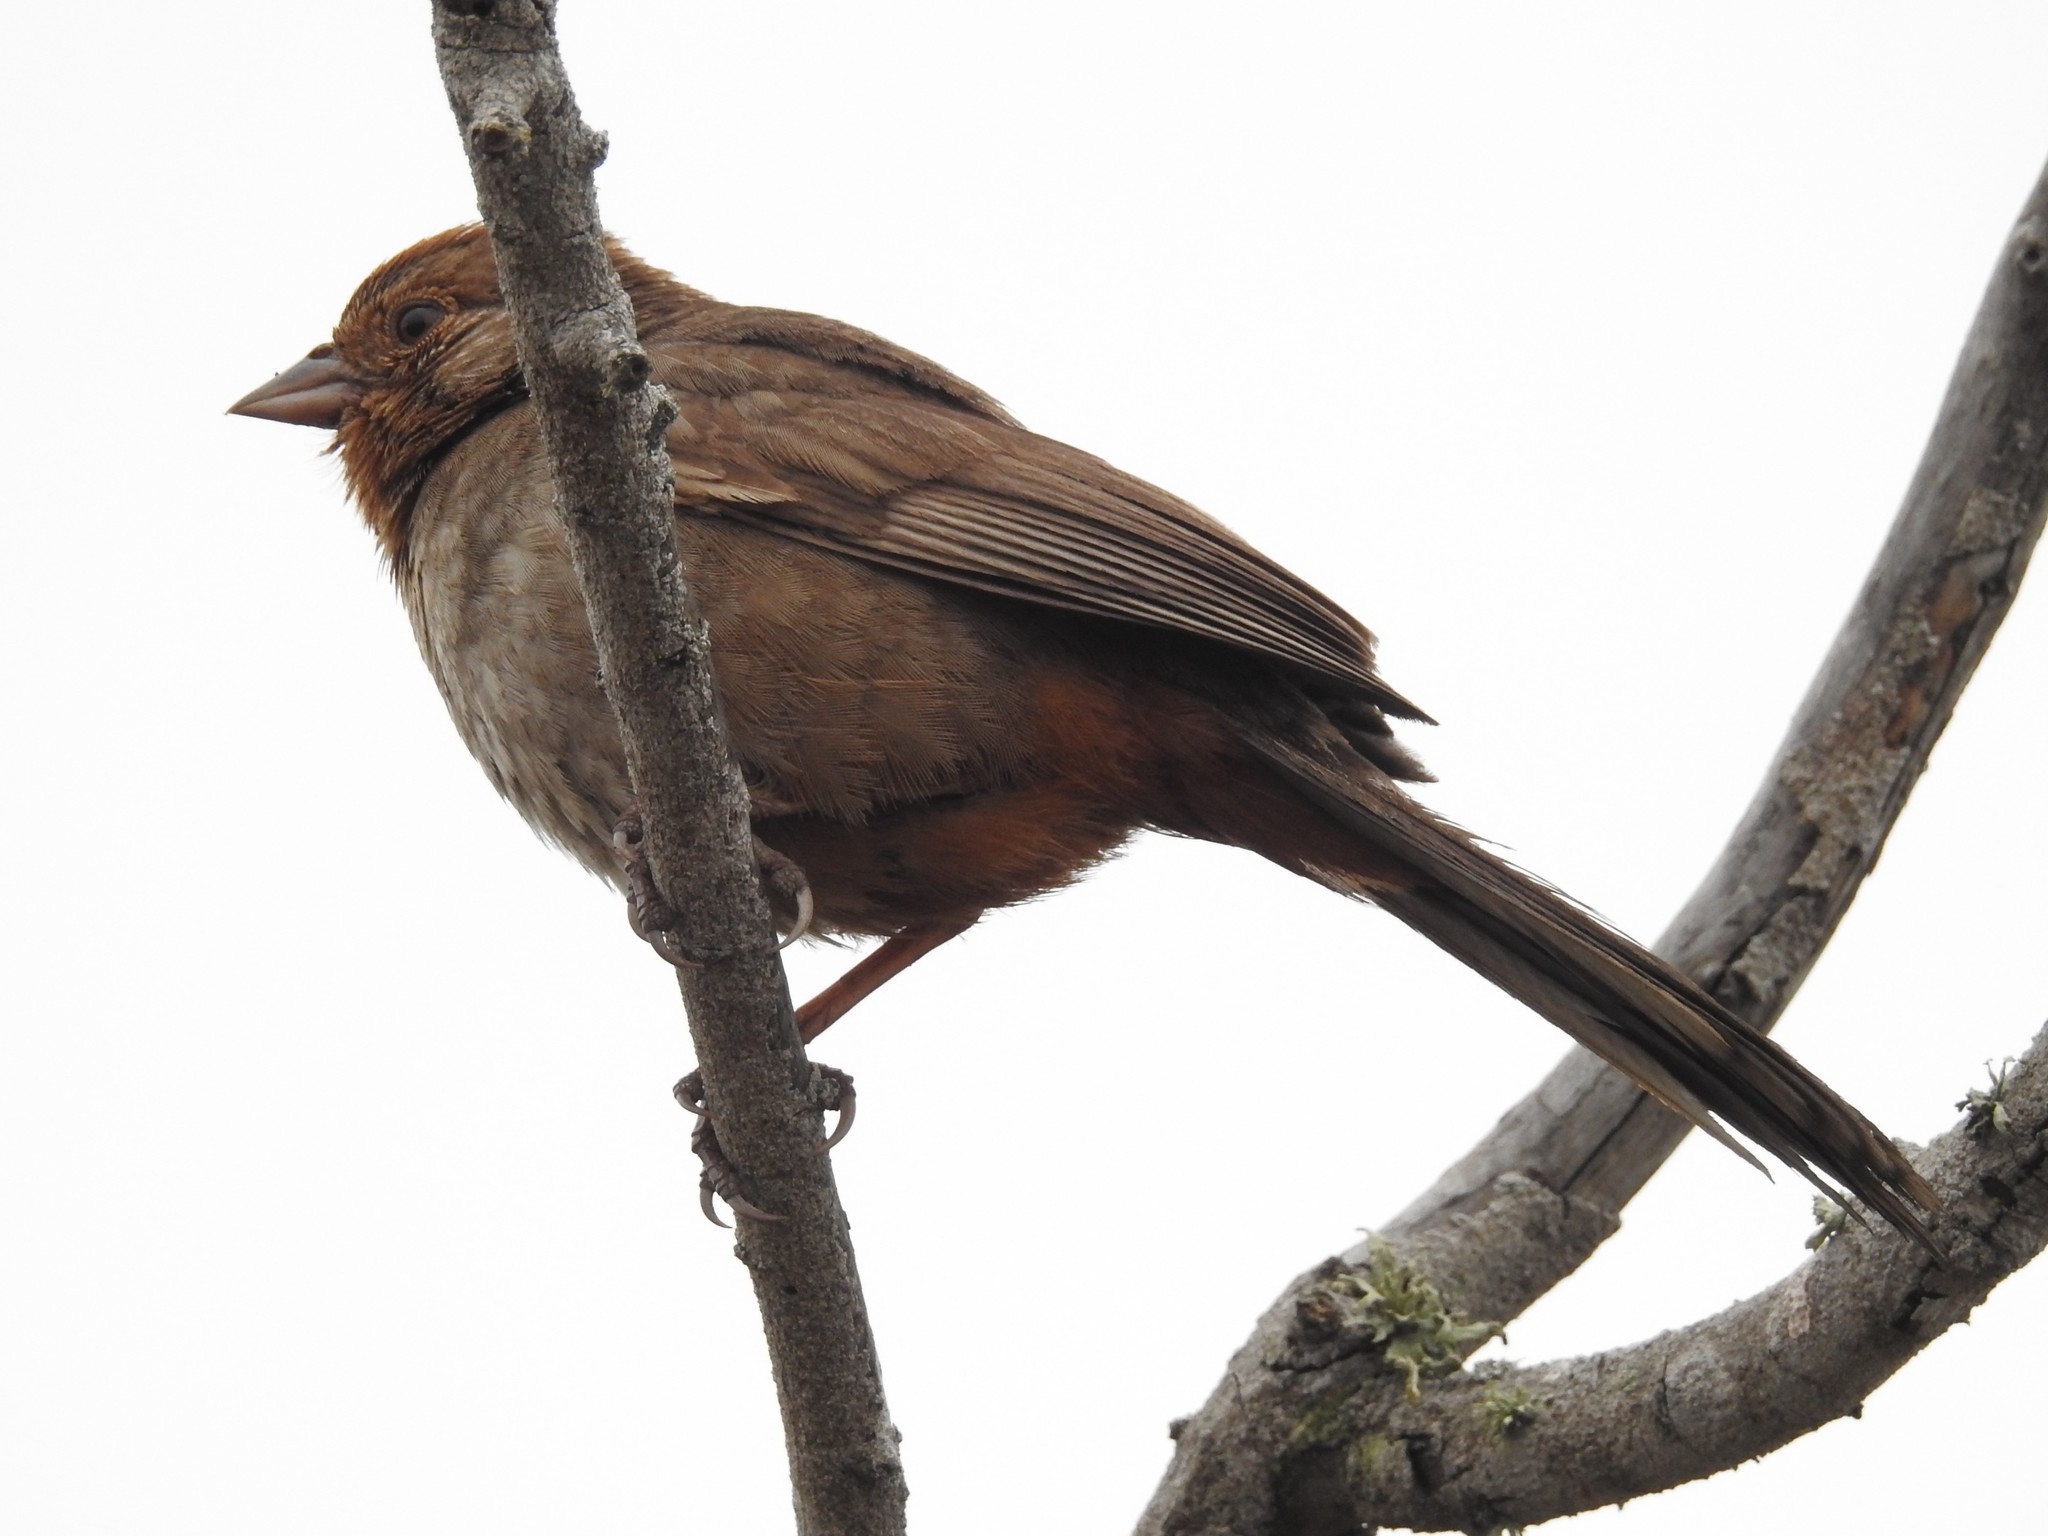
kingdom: Animalia
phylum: Chordata
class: Aves
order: Passeriformes
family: Passerellidae
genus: Melozone
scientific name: Melozone crissalis
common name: California towhee
